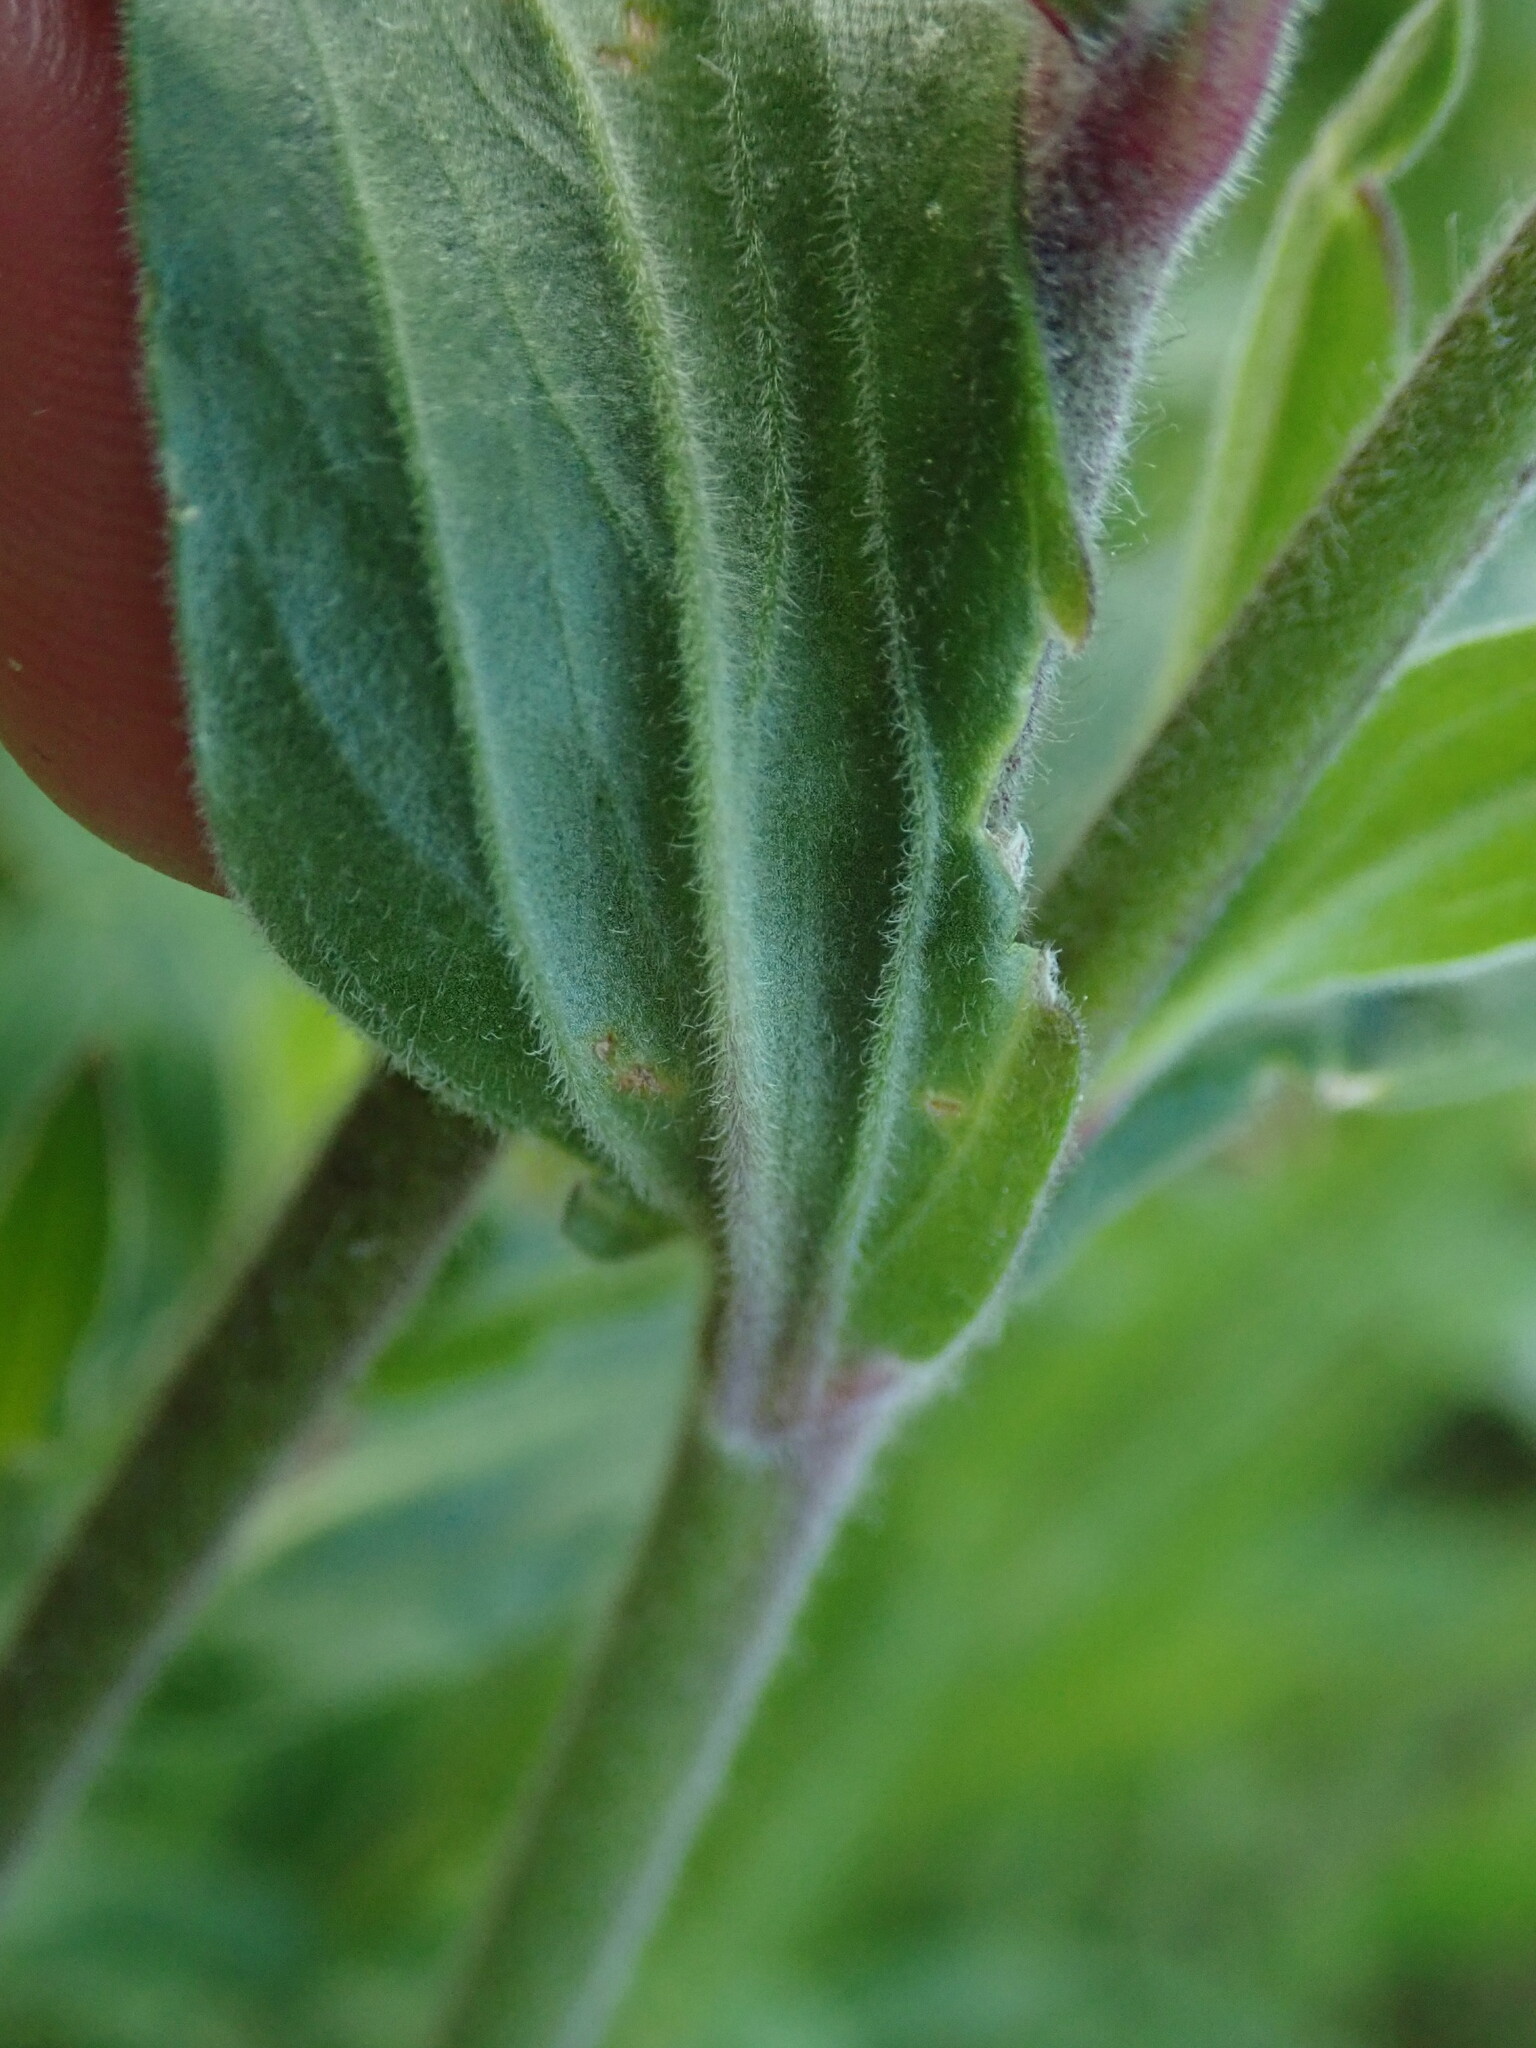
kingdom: Plantae
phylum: Tracheophyta
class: Magnoliopsida
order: Caryophyllales
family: Caryophyllaceae
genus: Silene
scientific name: Silene hampeana
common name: Catchfly
